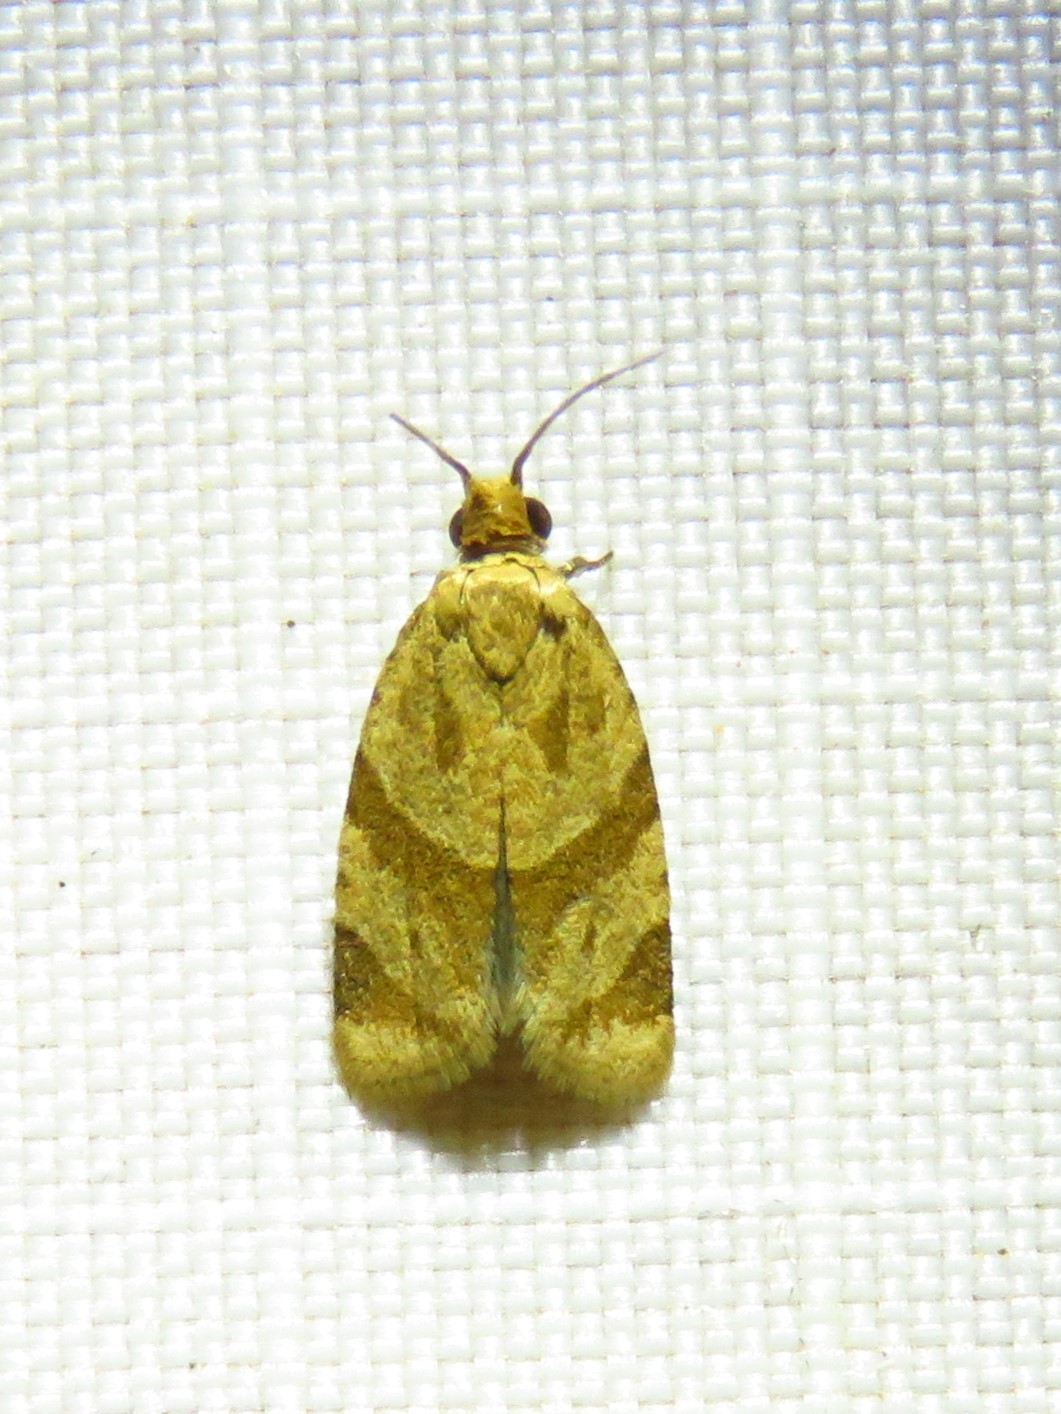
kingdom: Animalia
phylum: Arthropoda
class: Insecta
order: Lepidoptera
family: Tortricidae
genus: Clepsis
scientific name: Clepsis peritana
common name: Garden tortrix
